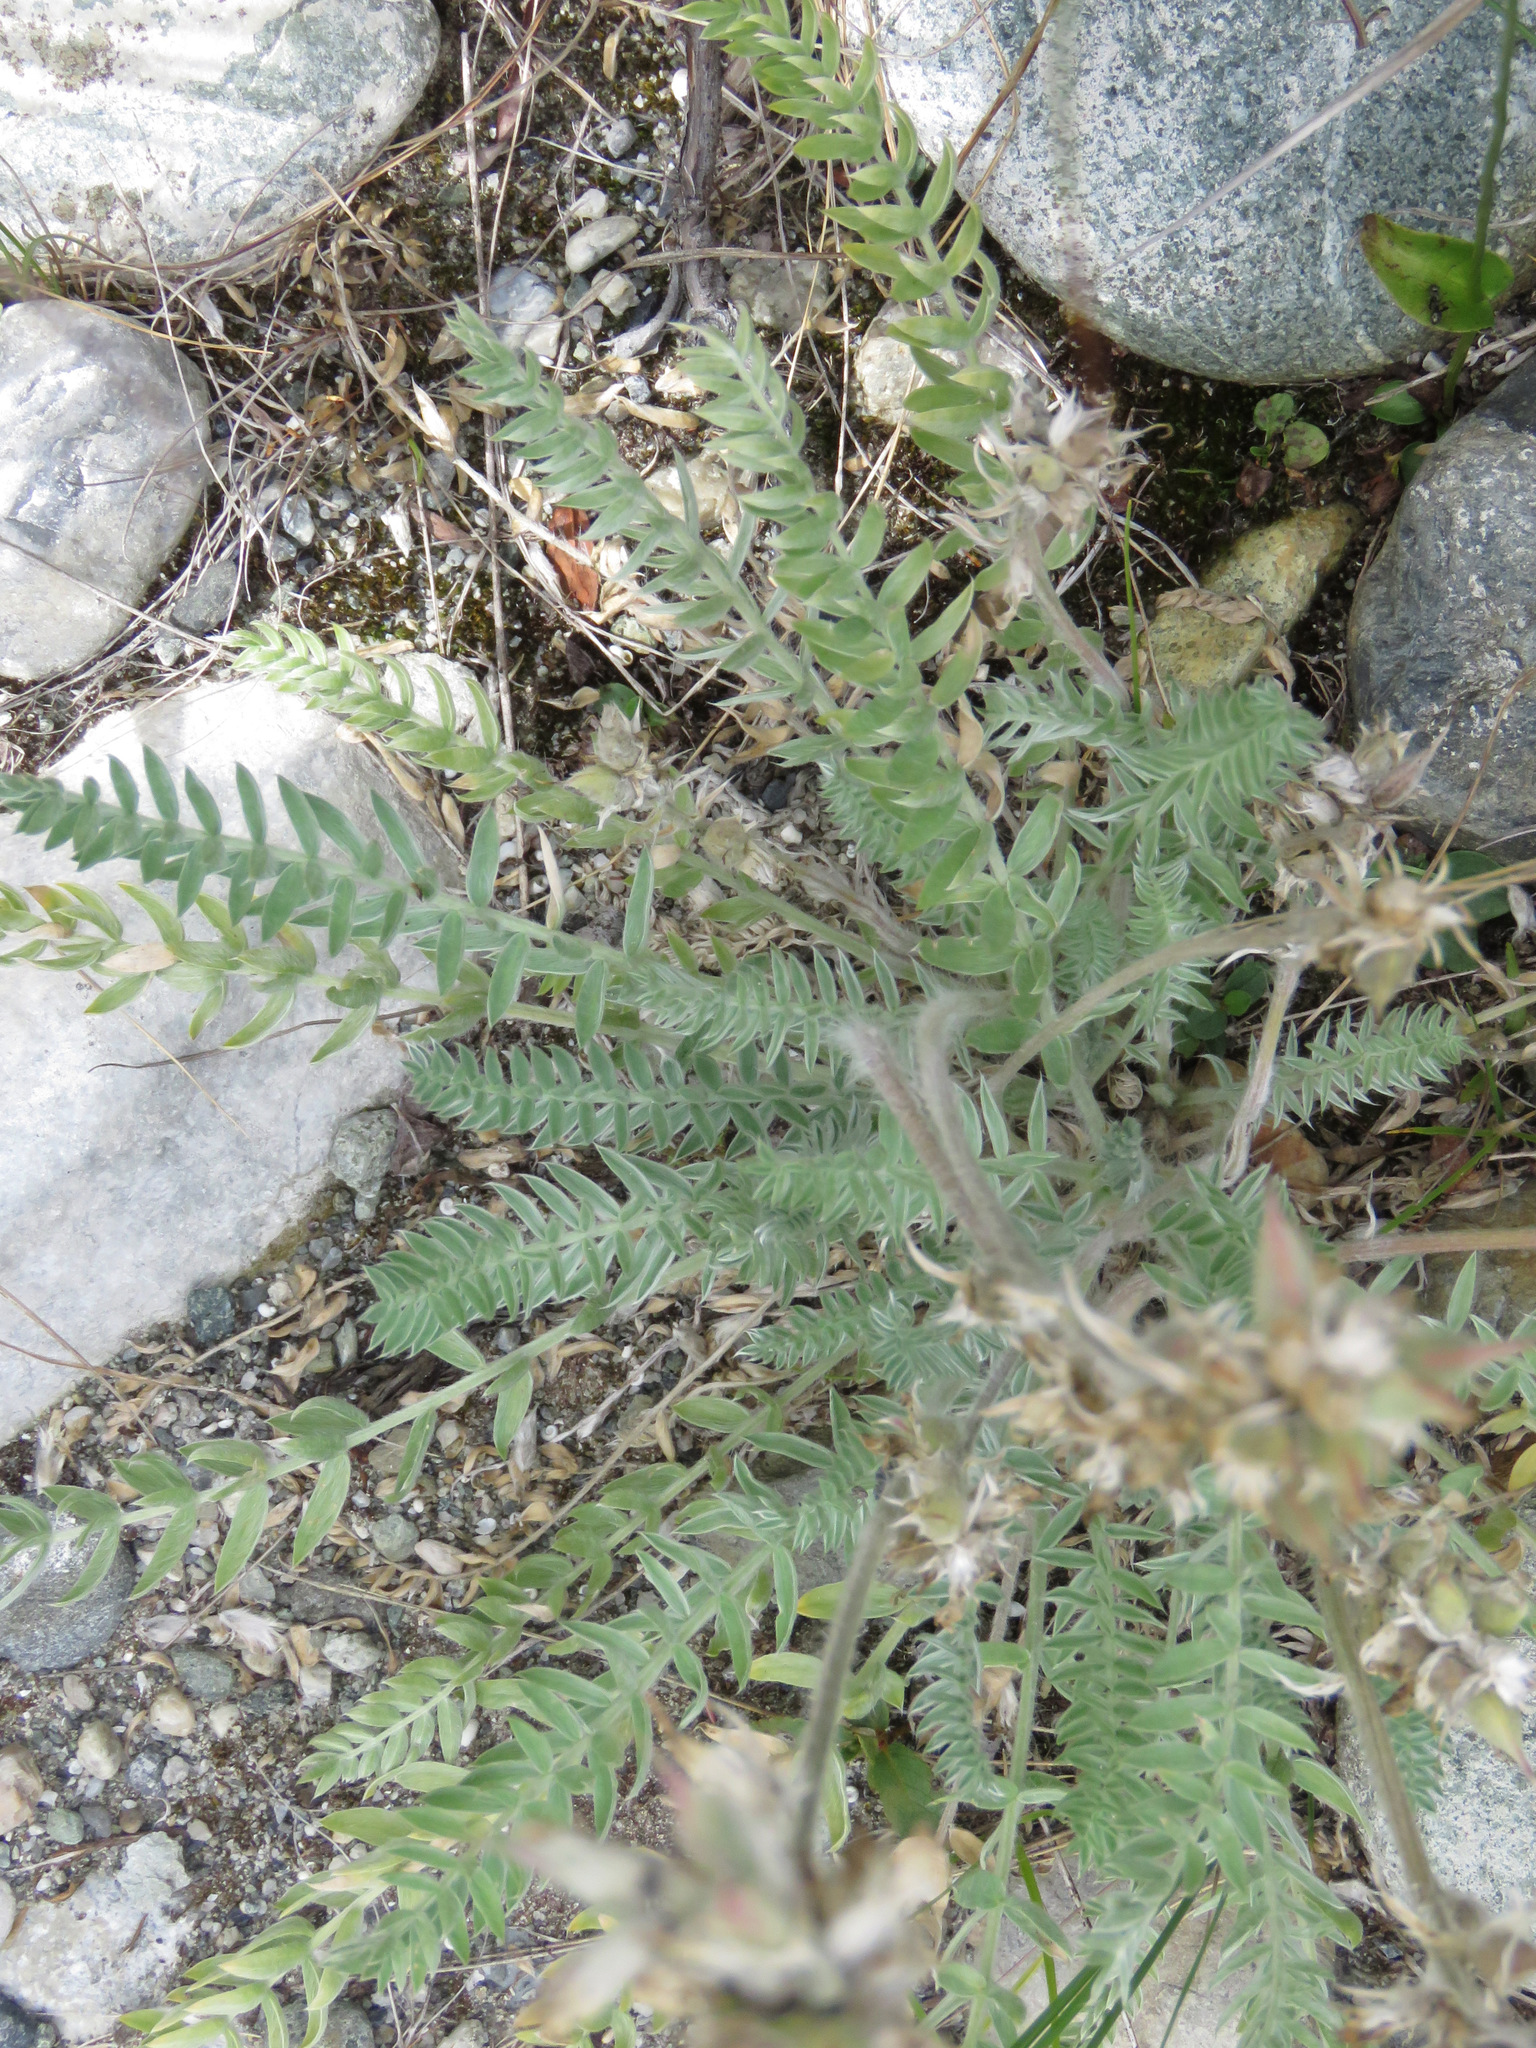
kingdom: Plantae
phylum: Tracheophyta
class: Magnoliopsida
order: Fabales
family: Fabaceae
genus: Oxytropis
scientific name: Oxytropis splendens
